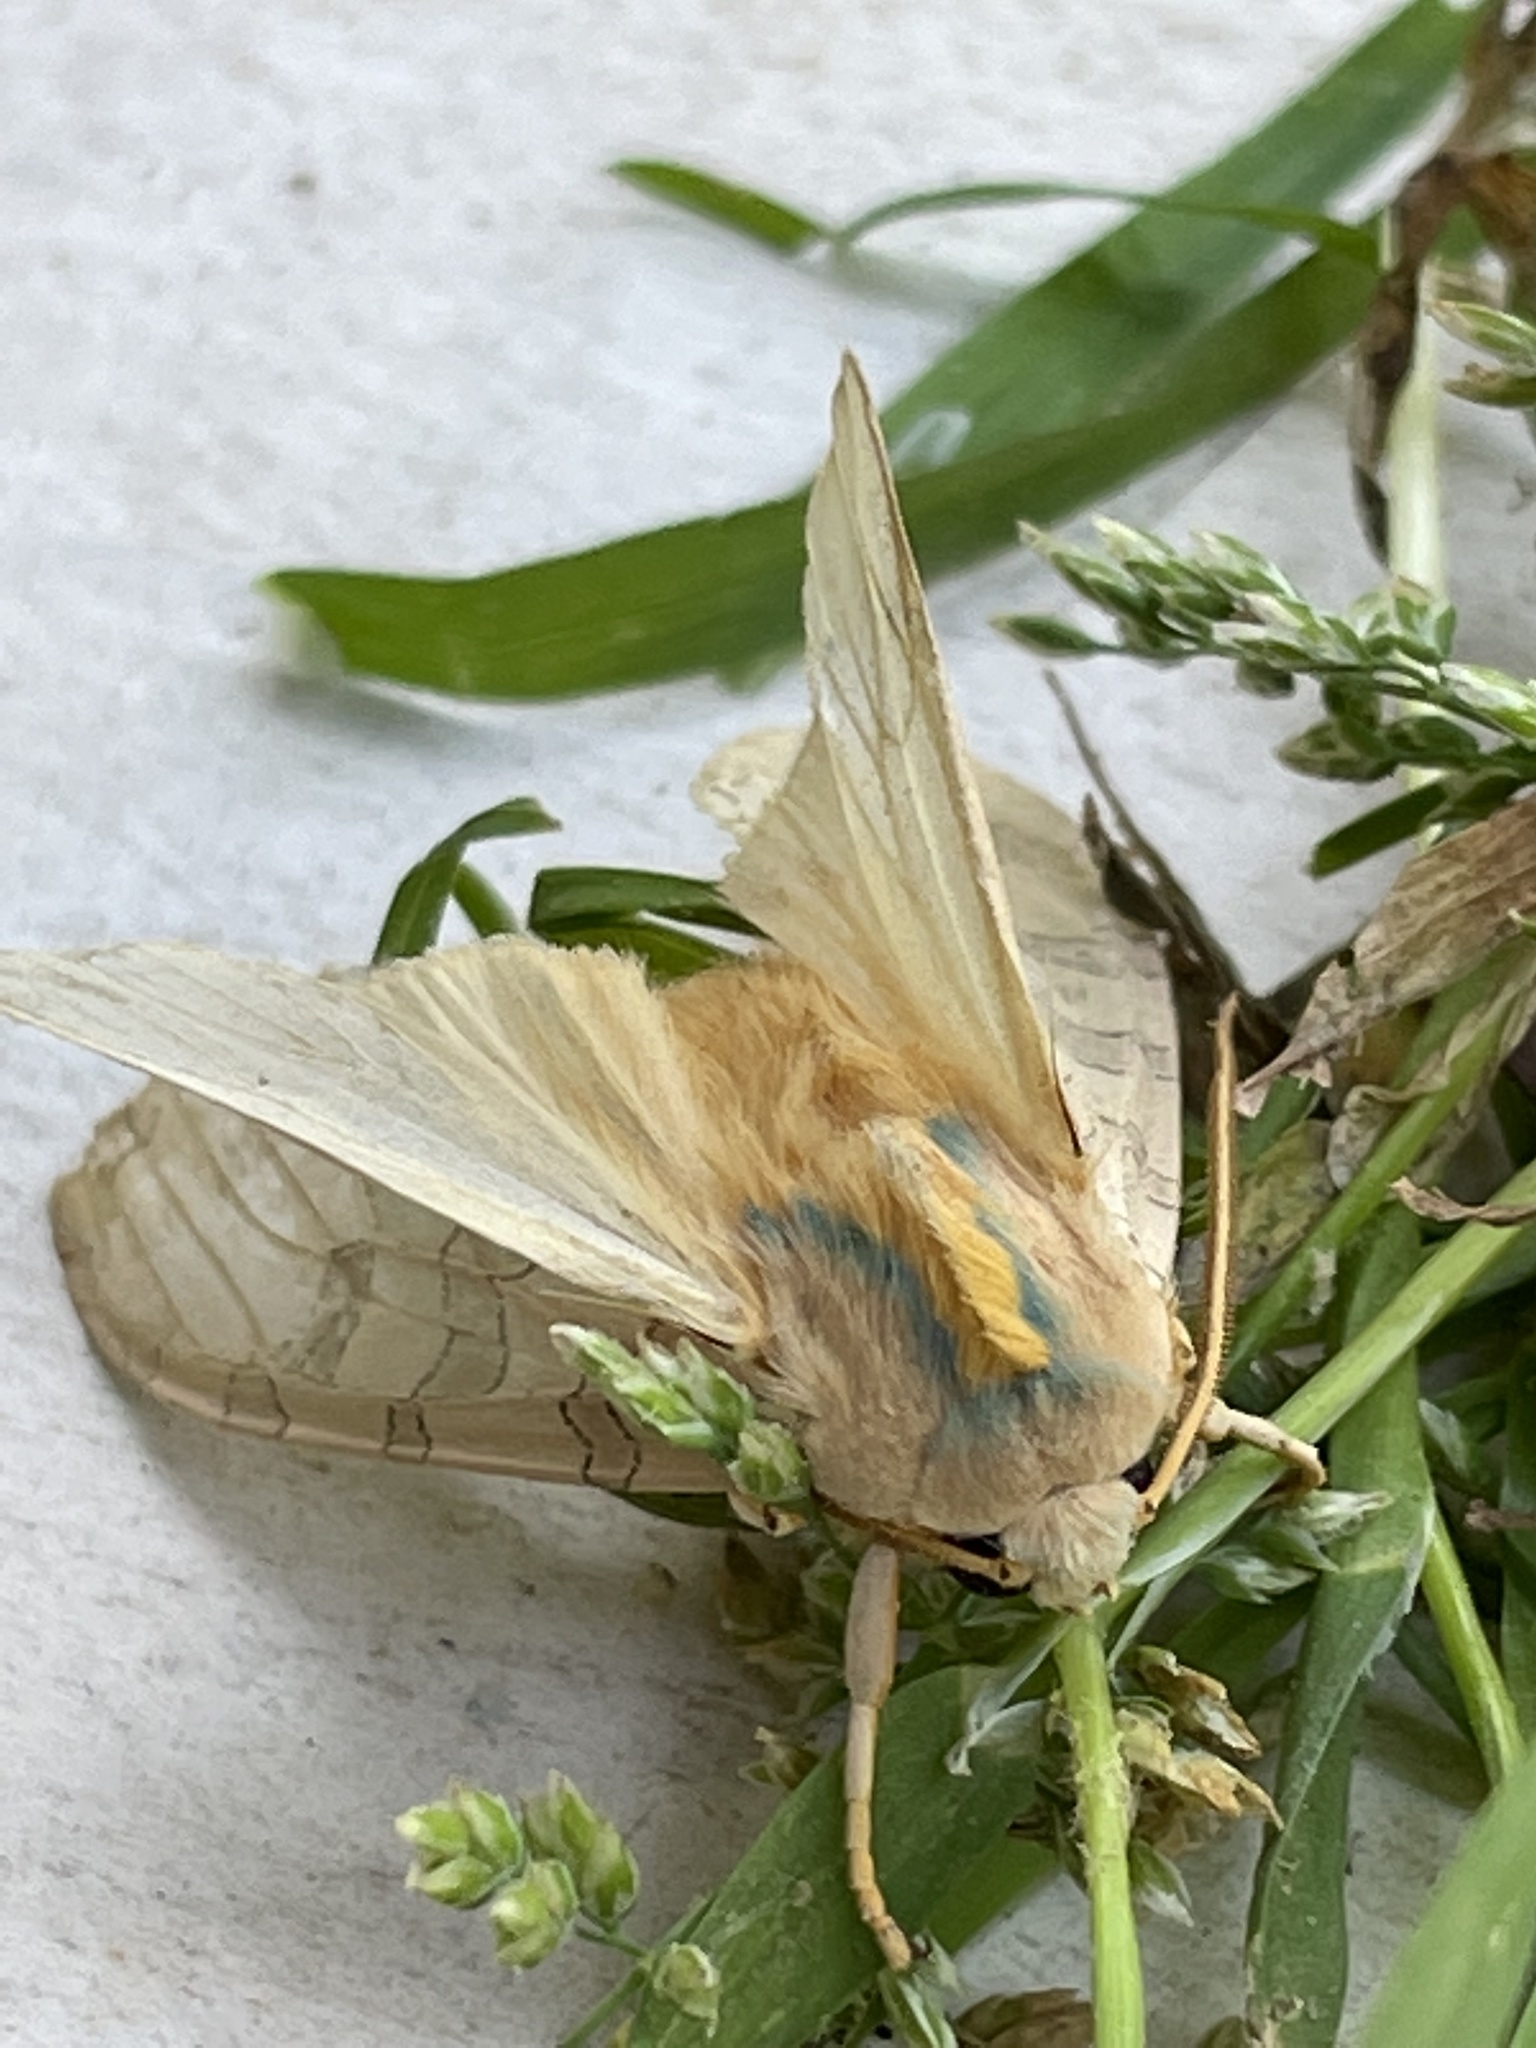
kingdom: Animalia
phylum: Arthropoda
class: Insecta
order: Lepidoptera
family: Erebidae
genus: Halysidota
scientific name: Halysidota
